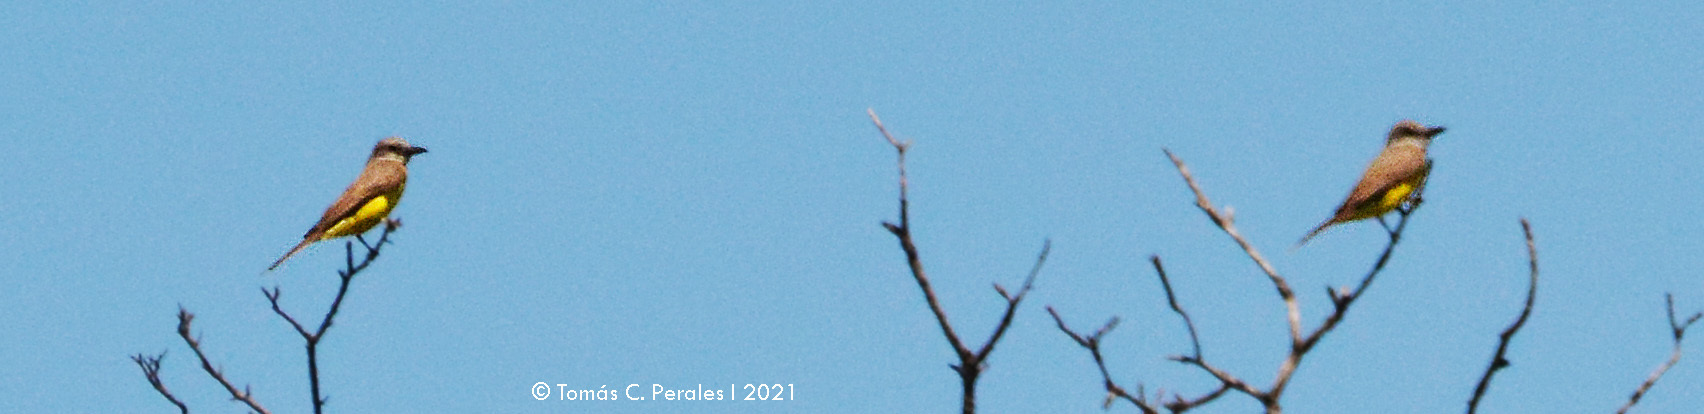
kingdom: Animalia
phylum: Chordata
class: Aves
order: Passeriformes
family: Tyrannidae
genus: Tyrannus
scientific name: Tyrannus melancholicus
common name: Tropical kingbird
